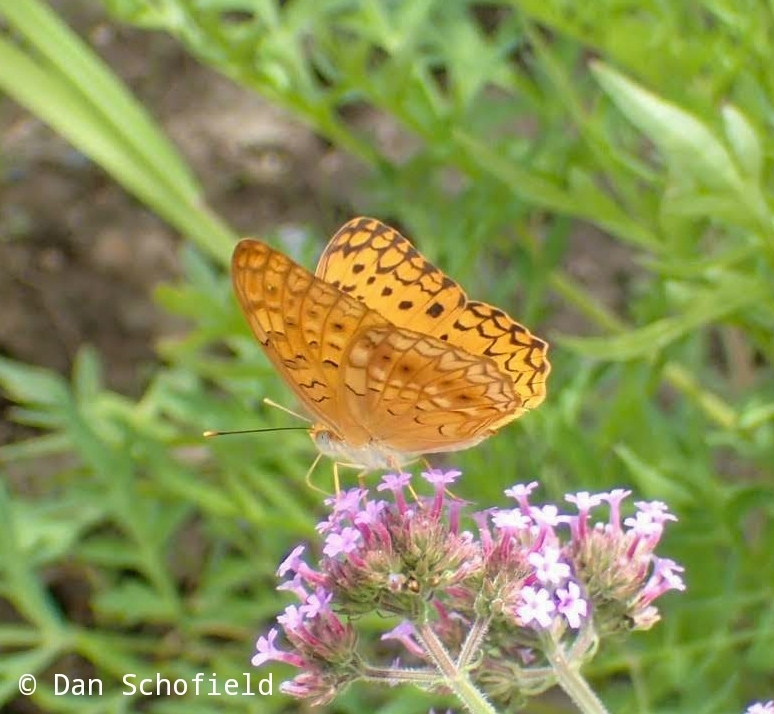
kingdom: Animalia
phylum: Arthropoda
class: Insecta
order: Lepidoptera
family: Nymphalidae
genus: Phalanta
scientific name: Phalanta phalantha
